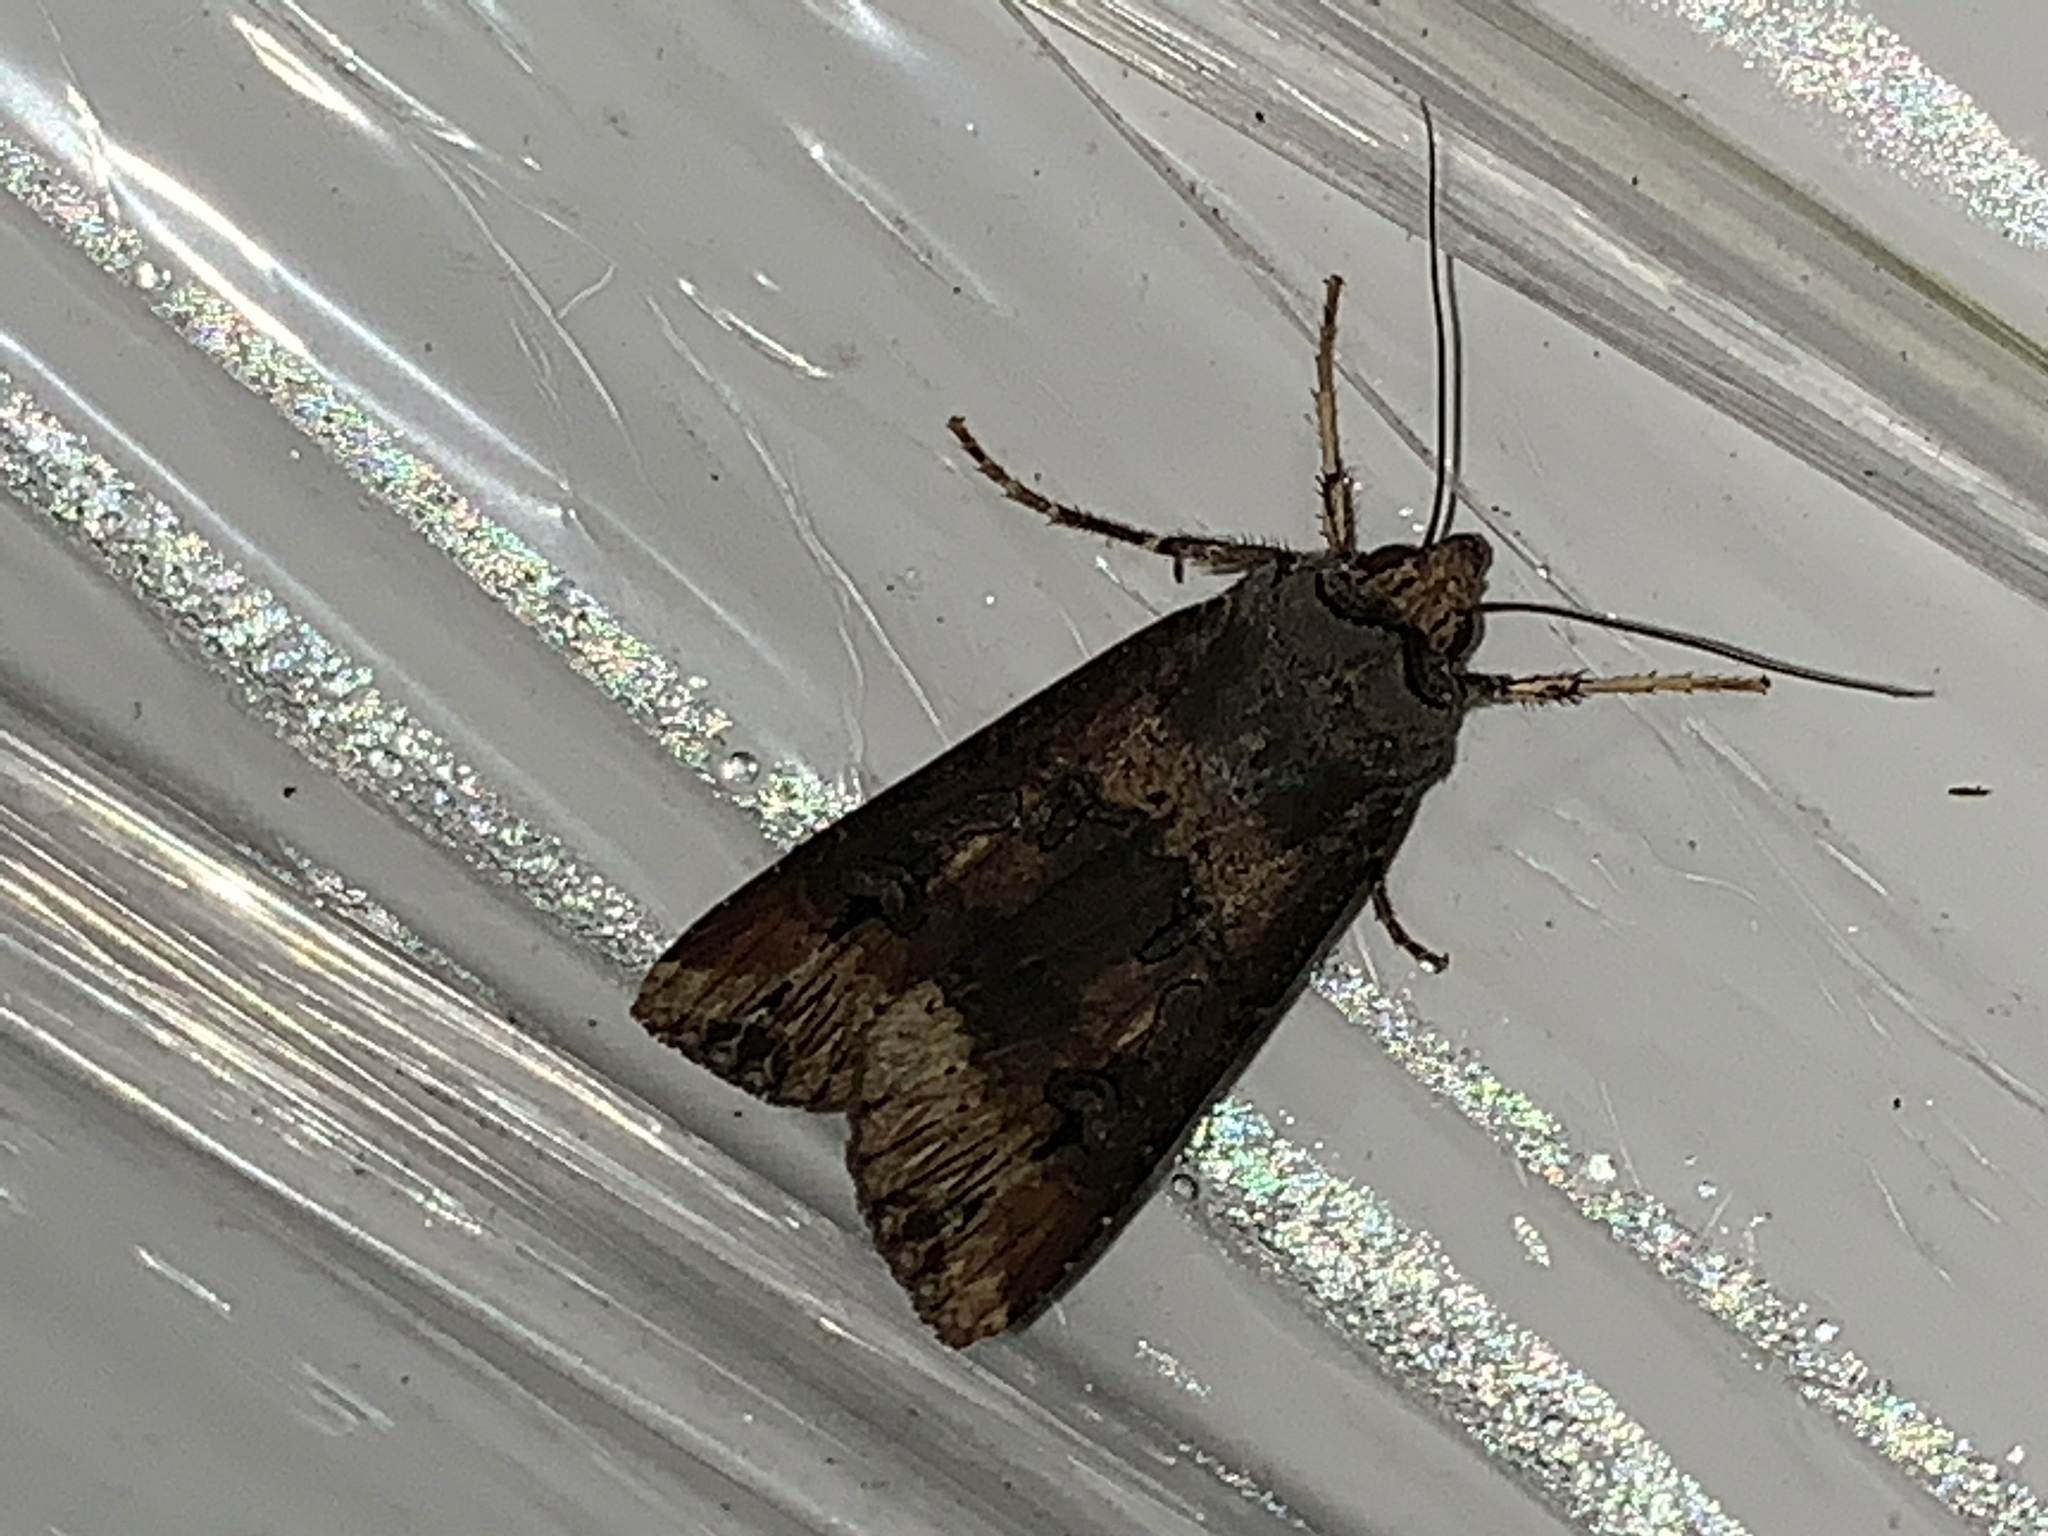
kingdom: Animalia
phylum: Arthropoda
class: Insecta
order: Lepidoptera
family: Noctuidae
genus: Agrotis
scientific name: Agrotis ipsilon
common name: Dark sword-grass
